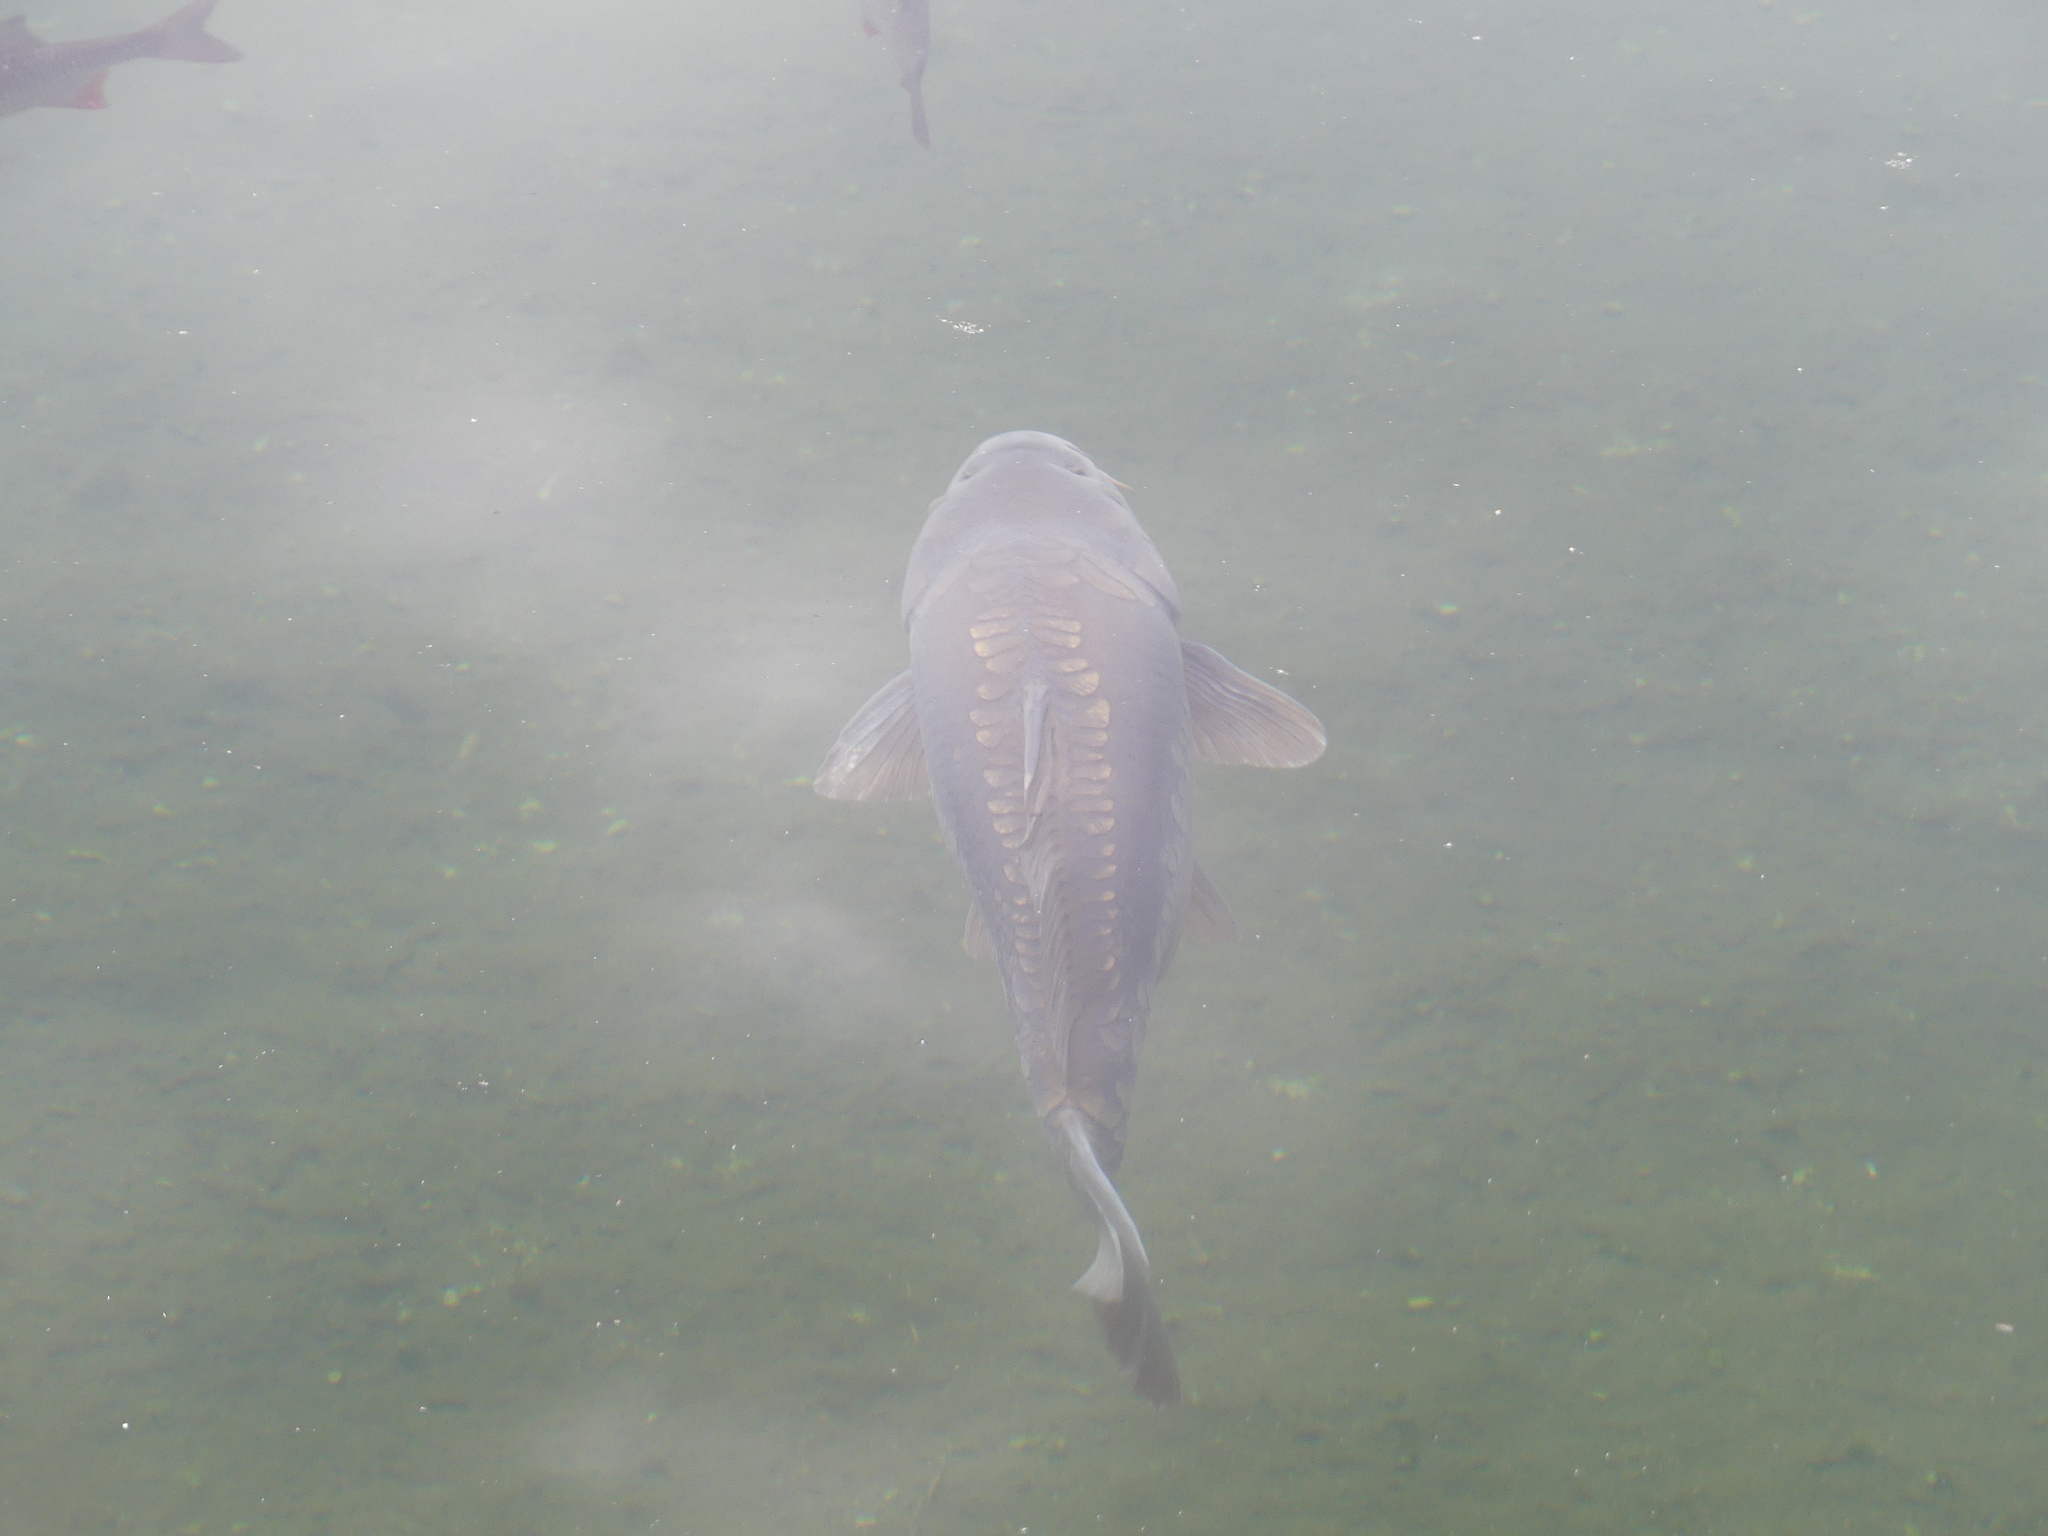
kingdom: Animalia
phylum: Chordata
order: Cypriniformes
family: Cyprinidae
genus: Cyprinus
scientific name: Cyprinus carpio
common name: Common carp
